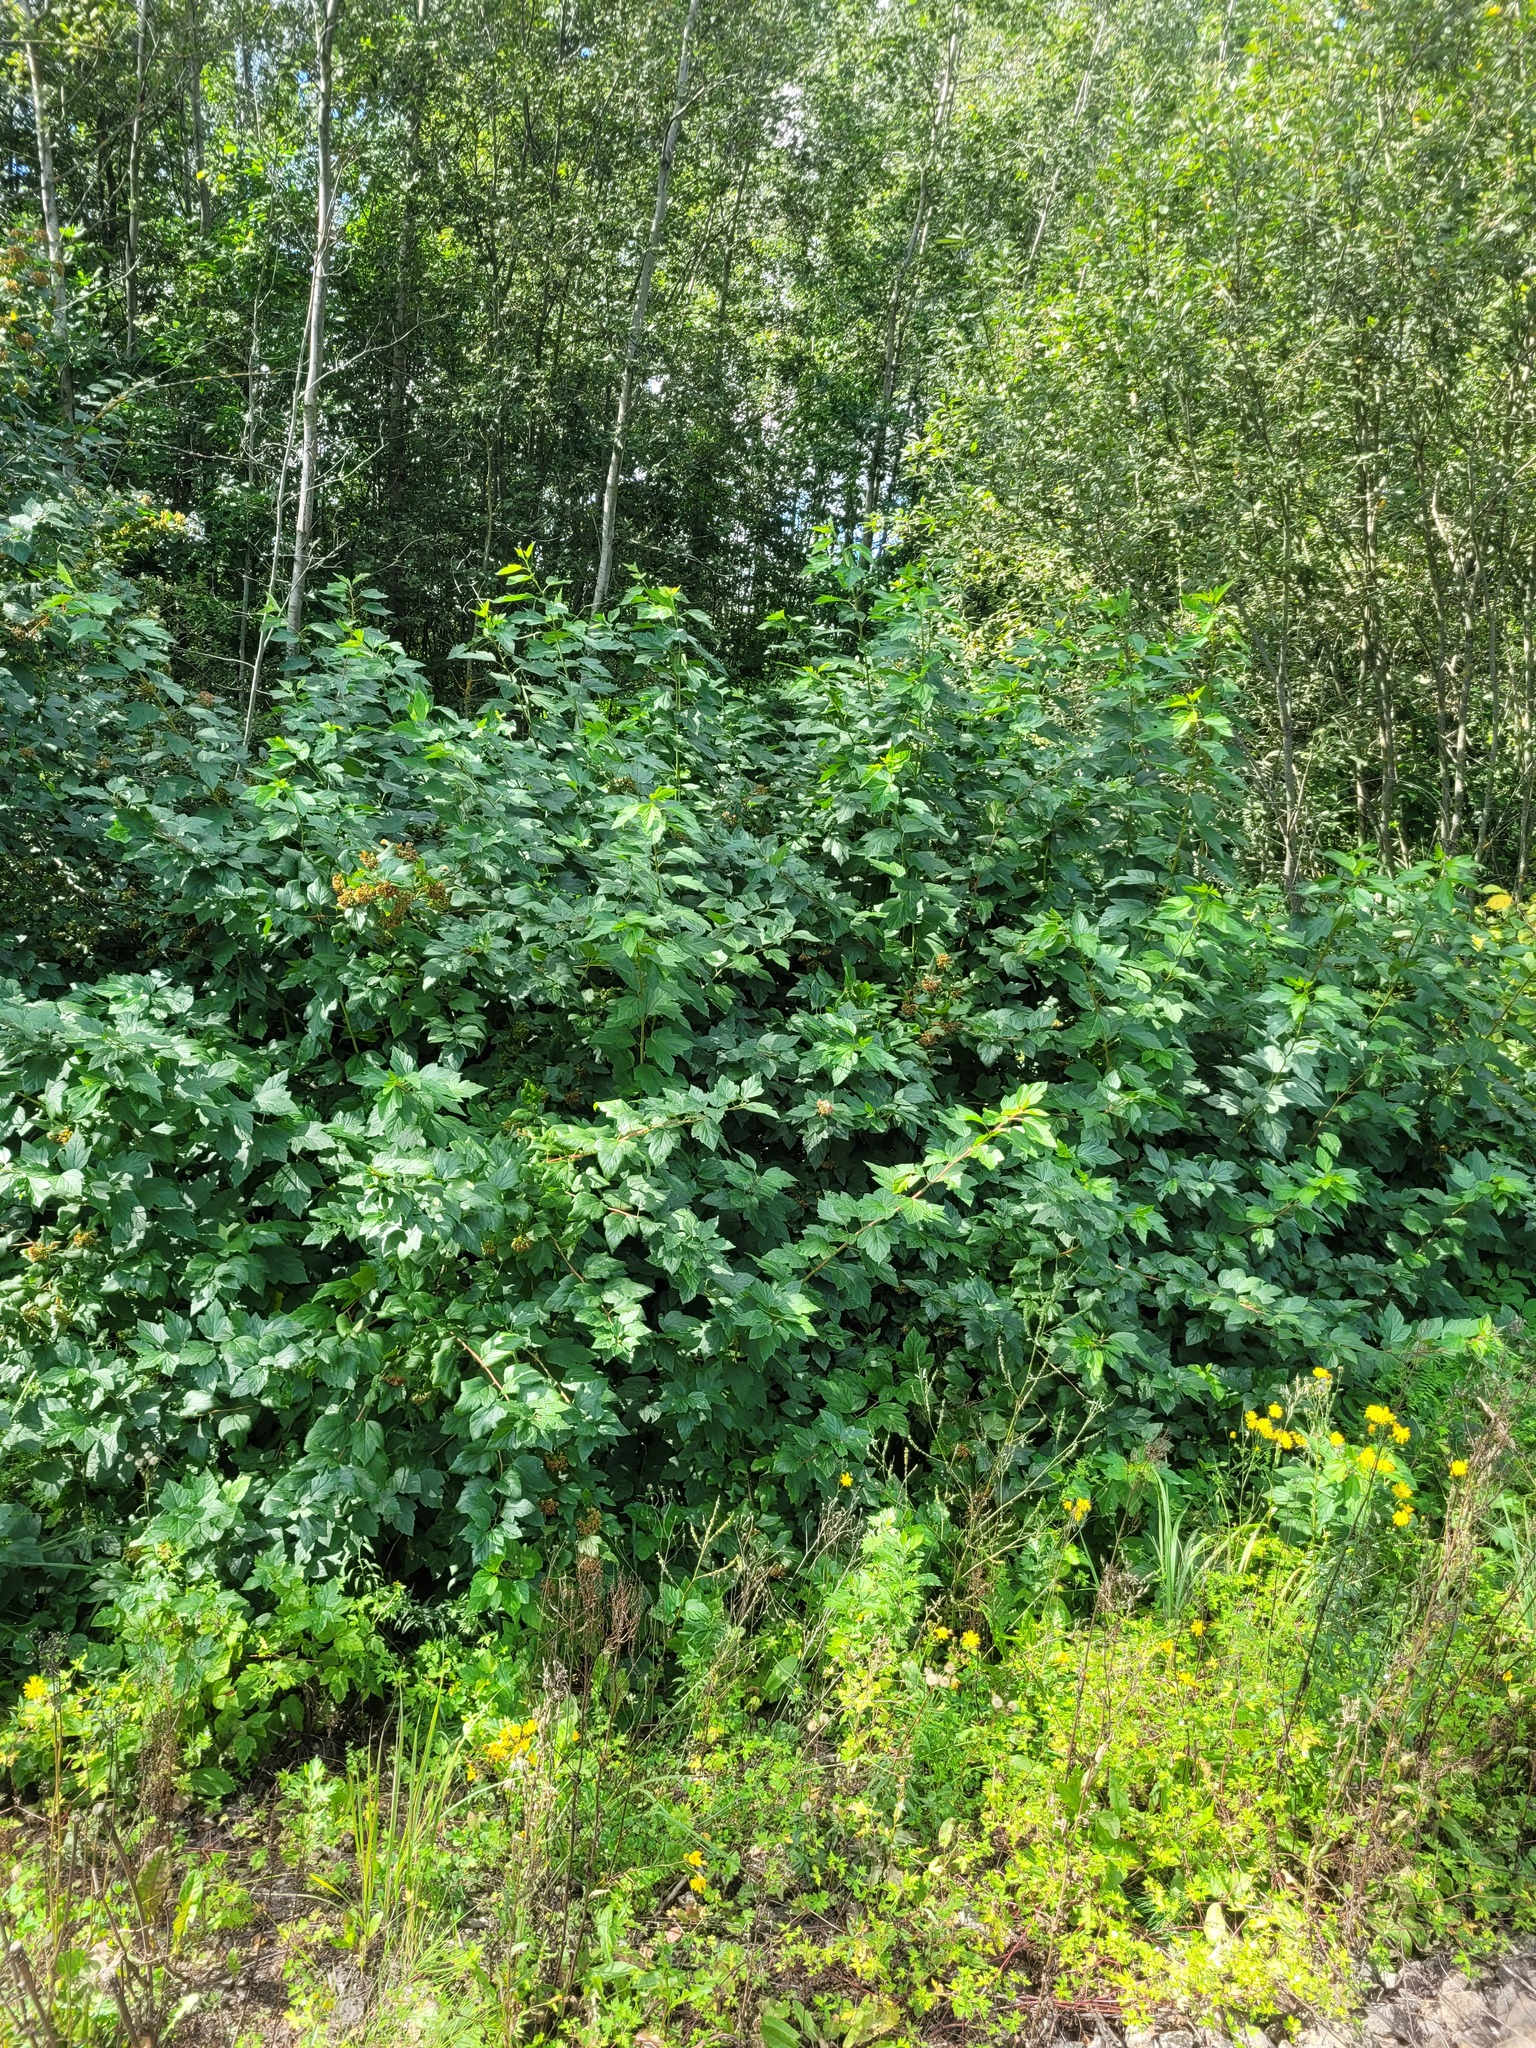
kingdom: Plantae
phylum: Tracheophyta
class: Magnoliopsida
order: Rosales
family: Rosaceae
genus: Physocarpus
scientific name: Physocarpus opulifolius
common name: Ninebark
